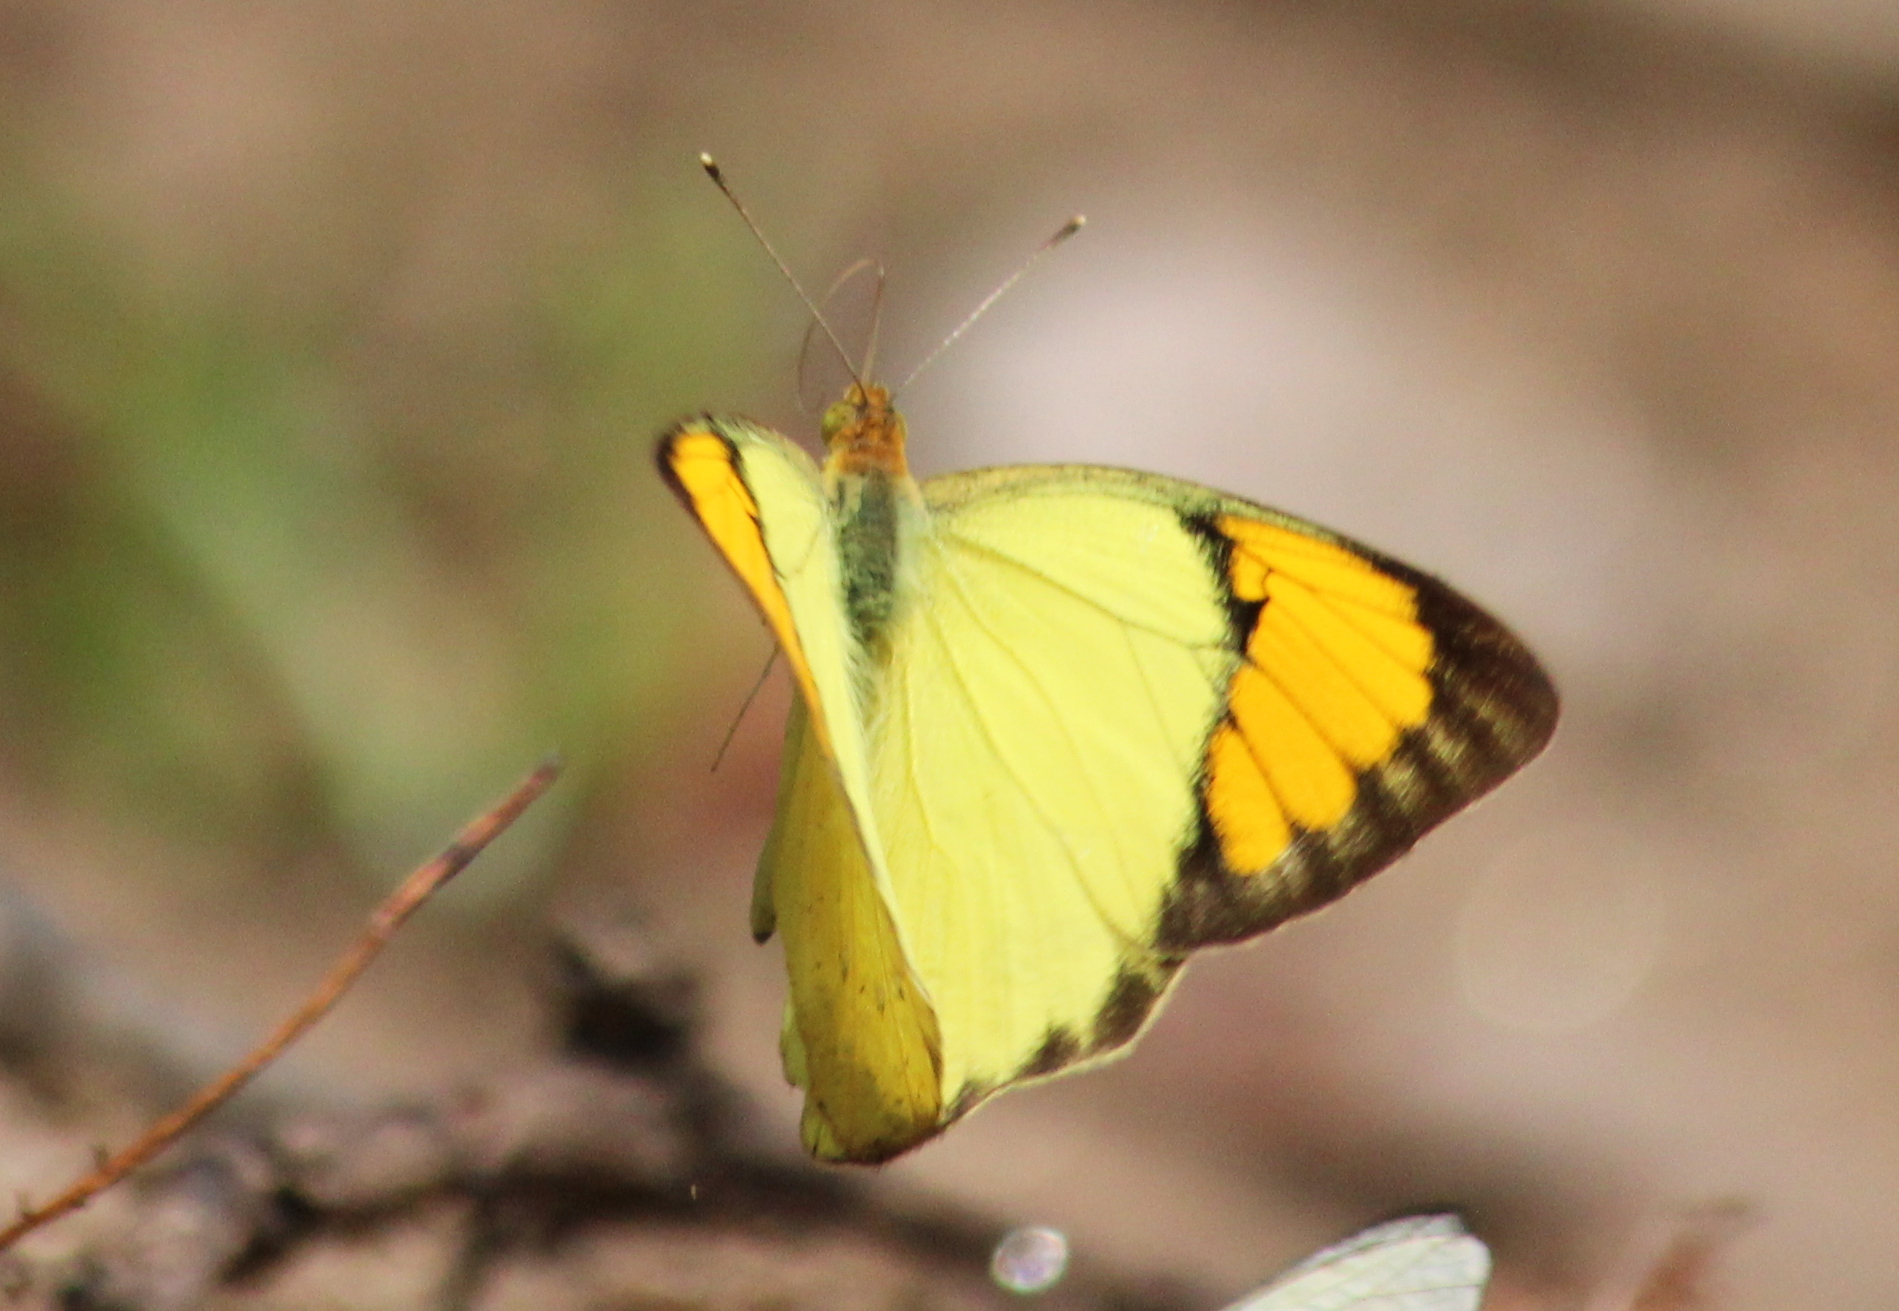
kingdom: Animalia
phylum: Arthropoda
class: Insecta
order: Lepidoptera
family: Pieridae
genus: Ixias
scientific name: Ixias pyrene
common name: Yellow orange tip
